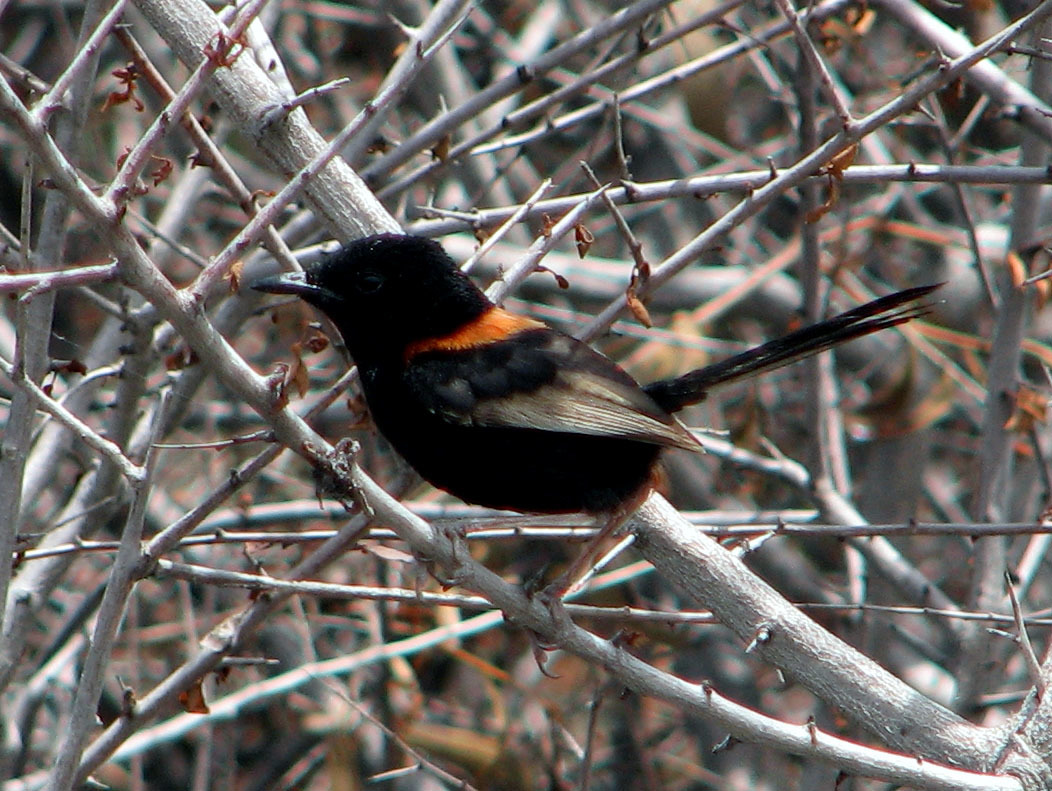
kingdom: Animalia
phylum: Chordata
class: Aves
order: Passeriformes
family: Maluridae
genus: Malurus
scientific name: Malurus melanocephalus
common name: Red-backed fairywren
